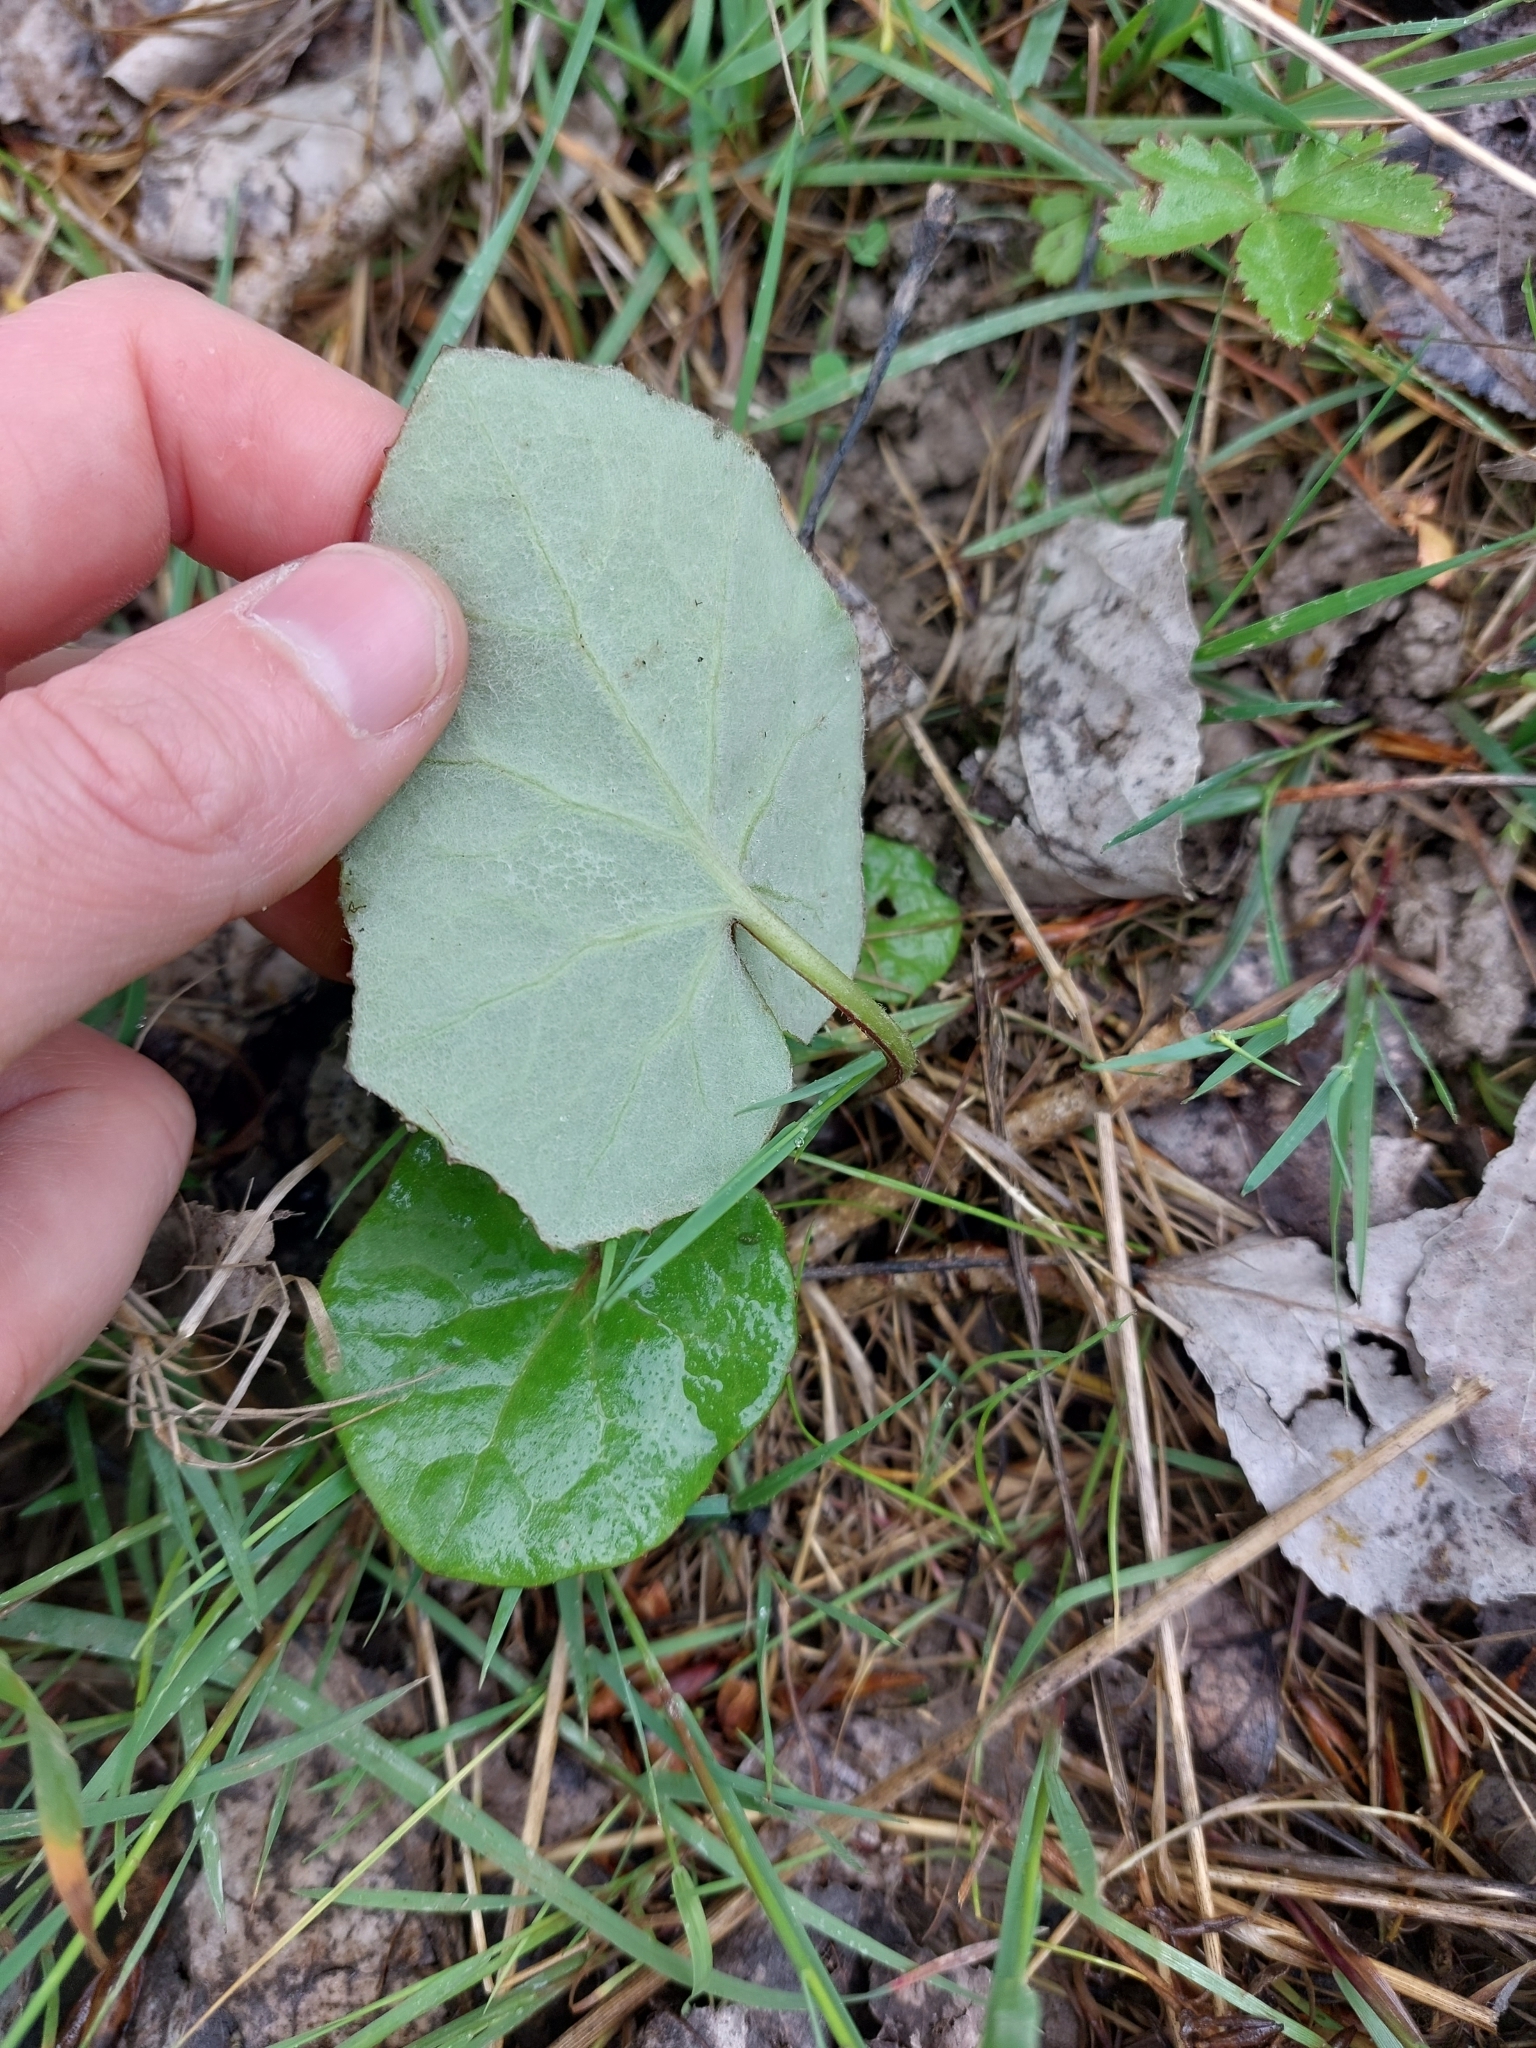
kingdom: Plantae
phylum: Tracheophyta
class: Magnoliopsida
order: Asterales
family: Asteraceae
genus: Tussilago
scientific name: Tussilago farfara
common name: Coltsfoot
